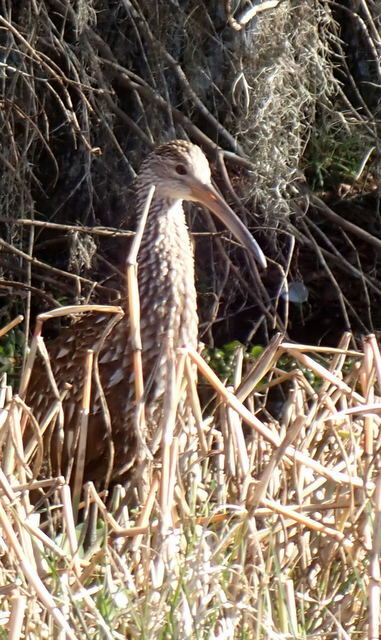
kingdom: Animalia
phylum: Chordata
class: Aves
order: Gruiformes
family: Aramidae
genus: Aramus
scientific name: Aramus guarauna
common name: Limpkin
